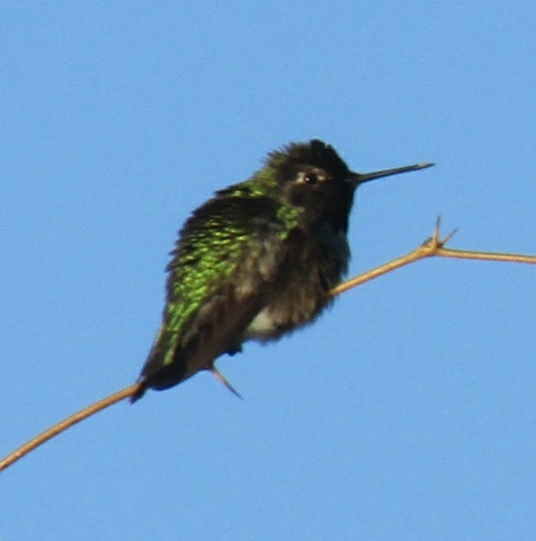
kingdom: Animalia
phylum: Chordata
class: Aves
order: Apodiformes
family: Trochilidae
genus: Calypte
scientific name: Calypte anna
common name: Anna's hummingbird
